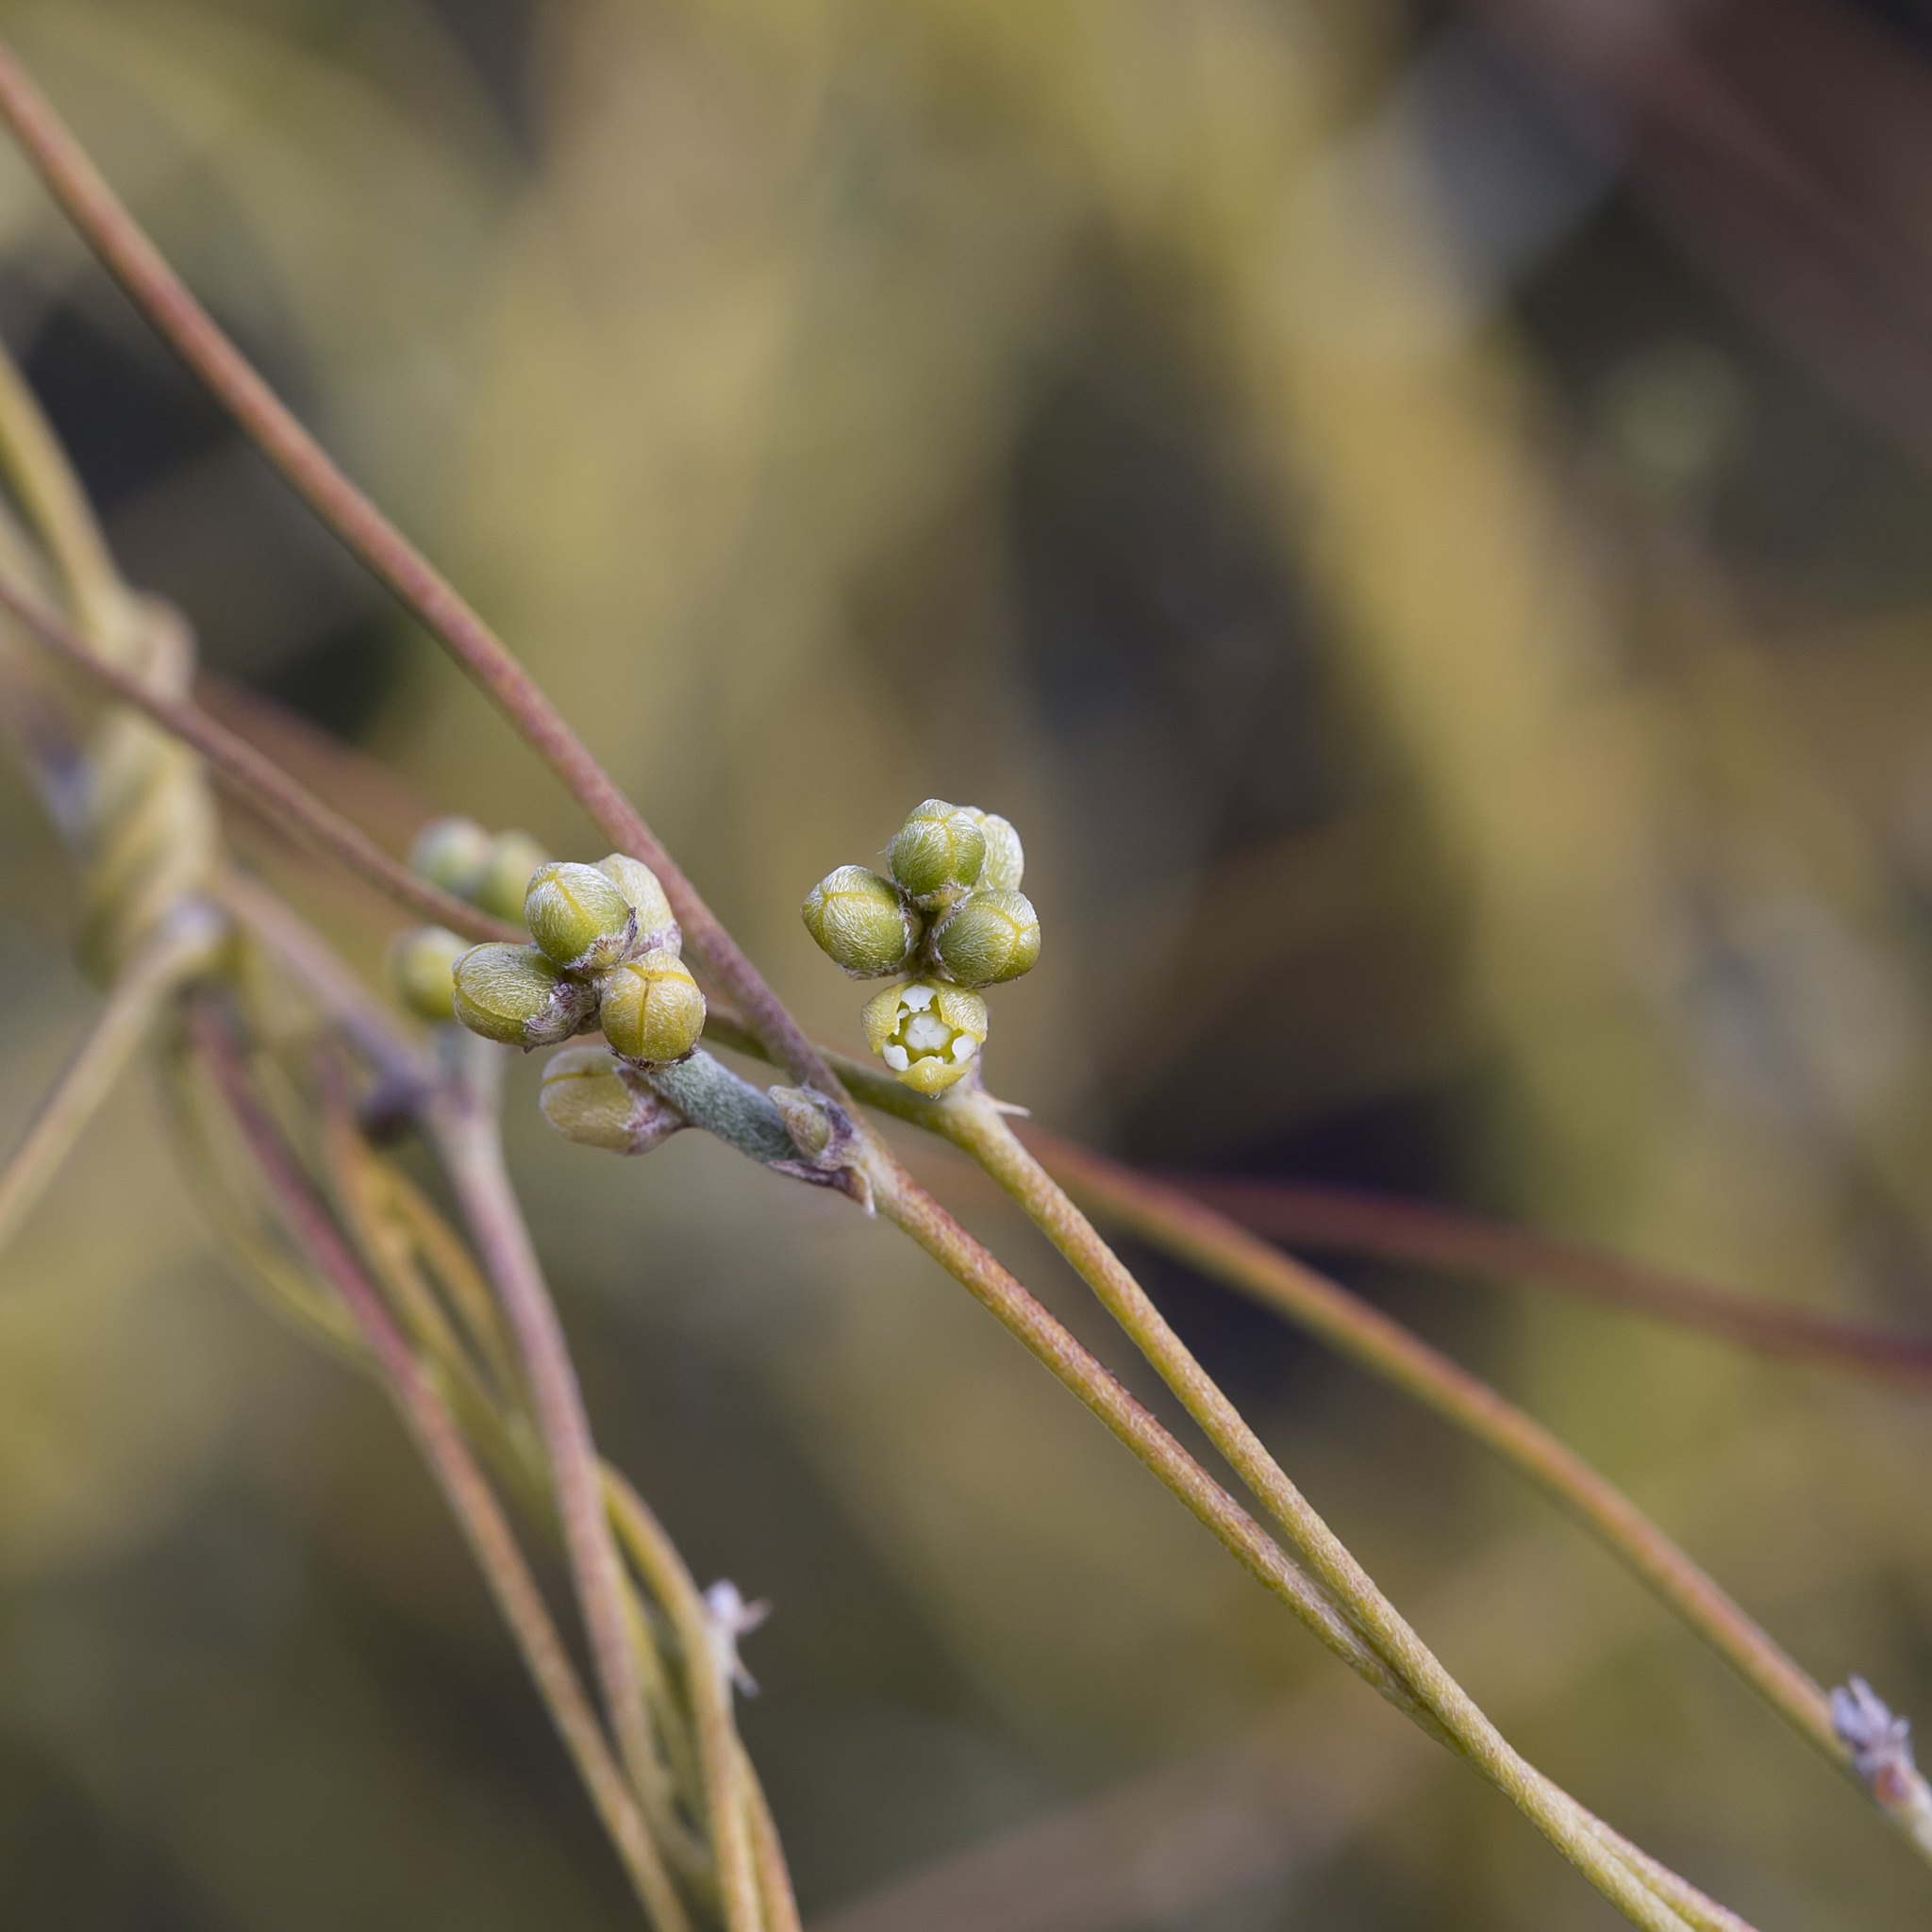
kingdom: Plantae
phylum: Tracheophyta
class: Magnoliopsida
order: Laurales
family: Lauraceae
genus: Cassytha
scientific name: Cassytha pubescens
